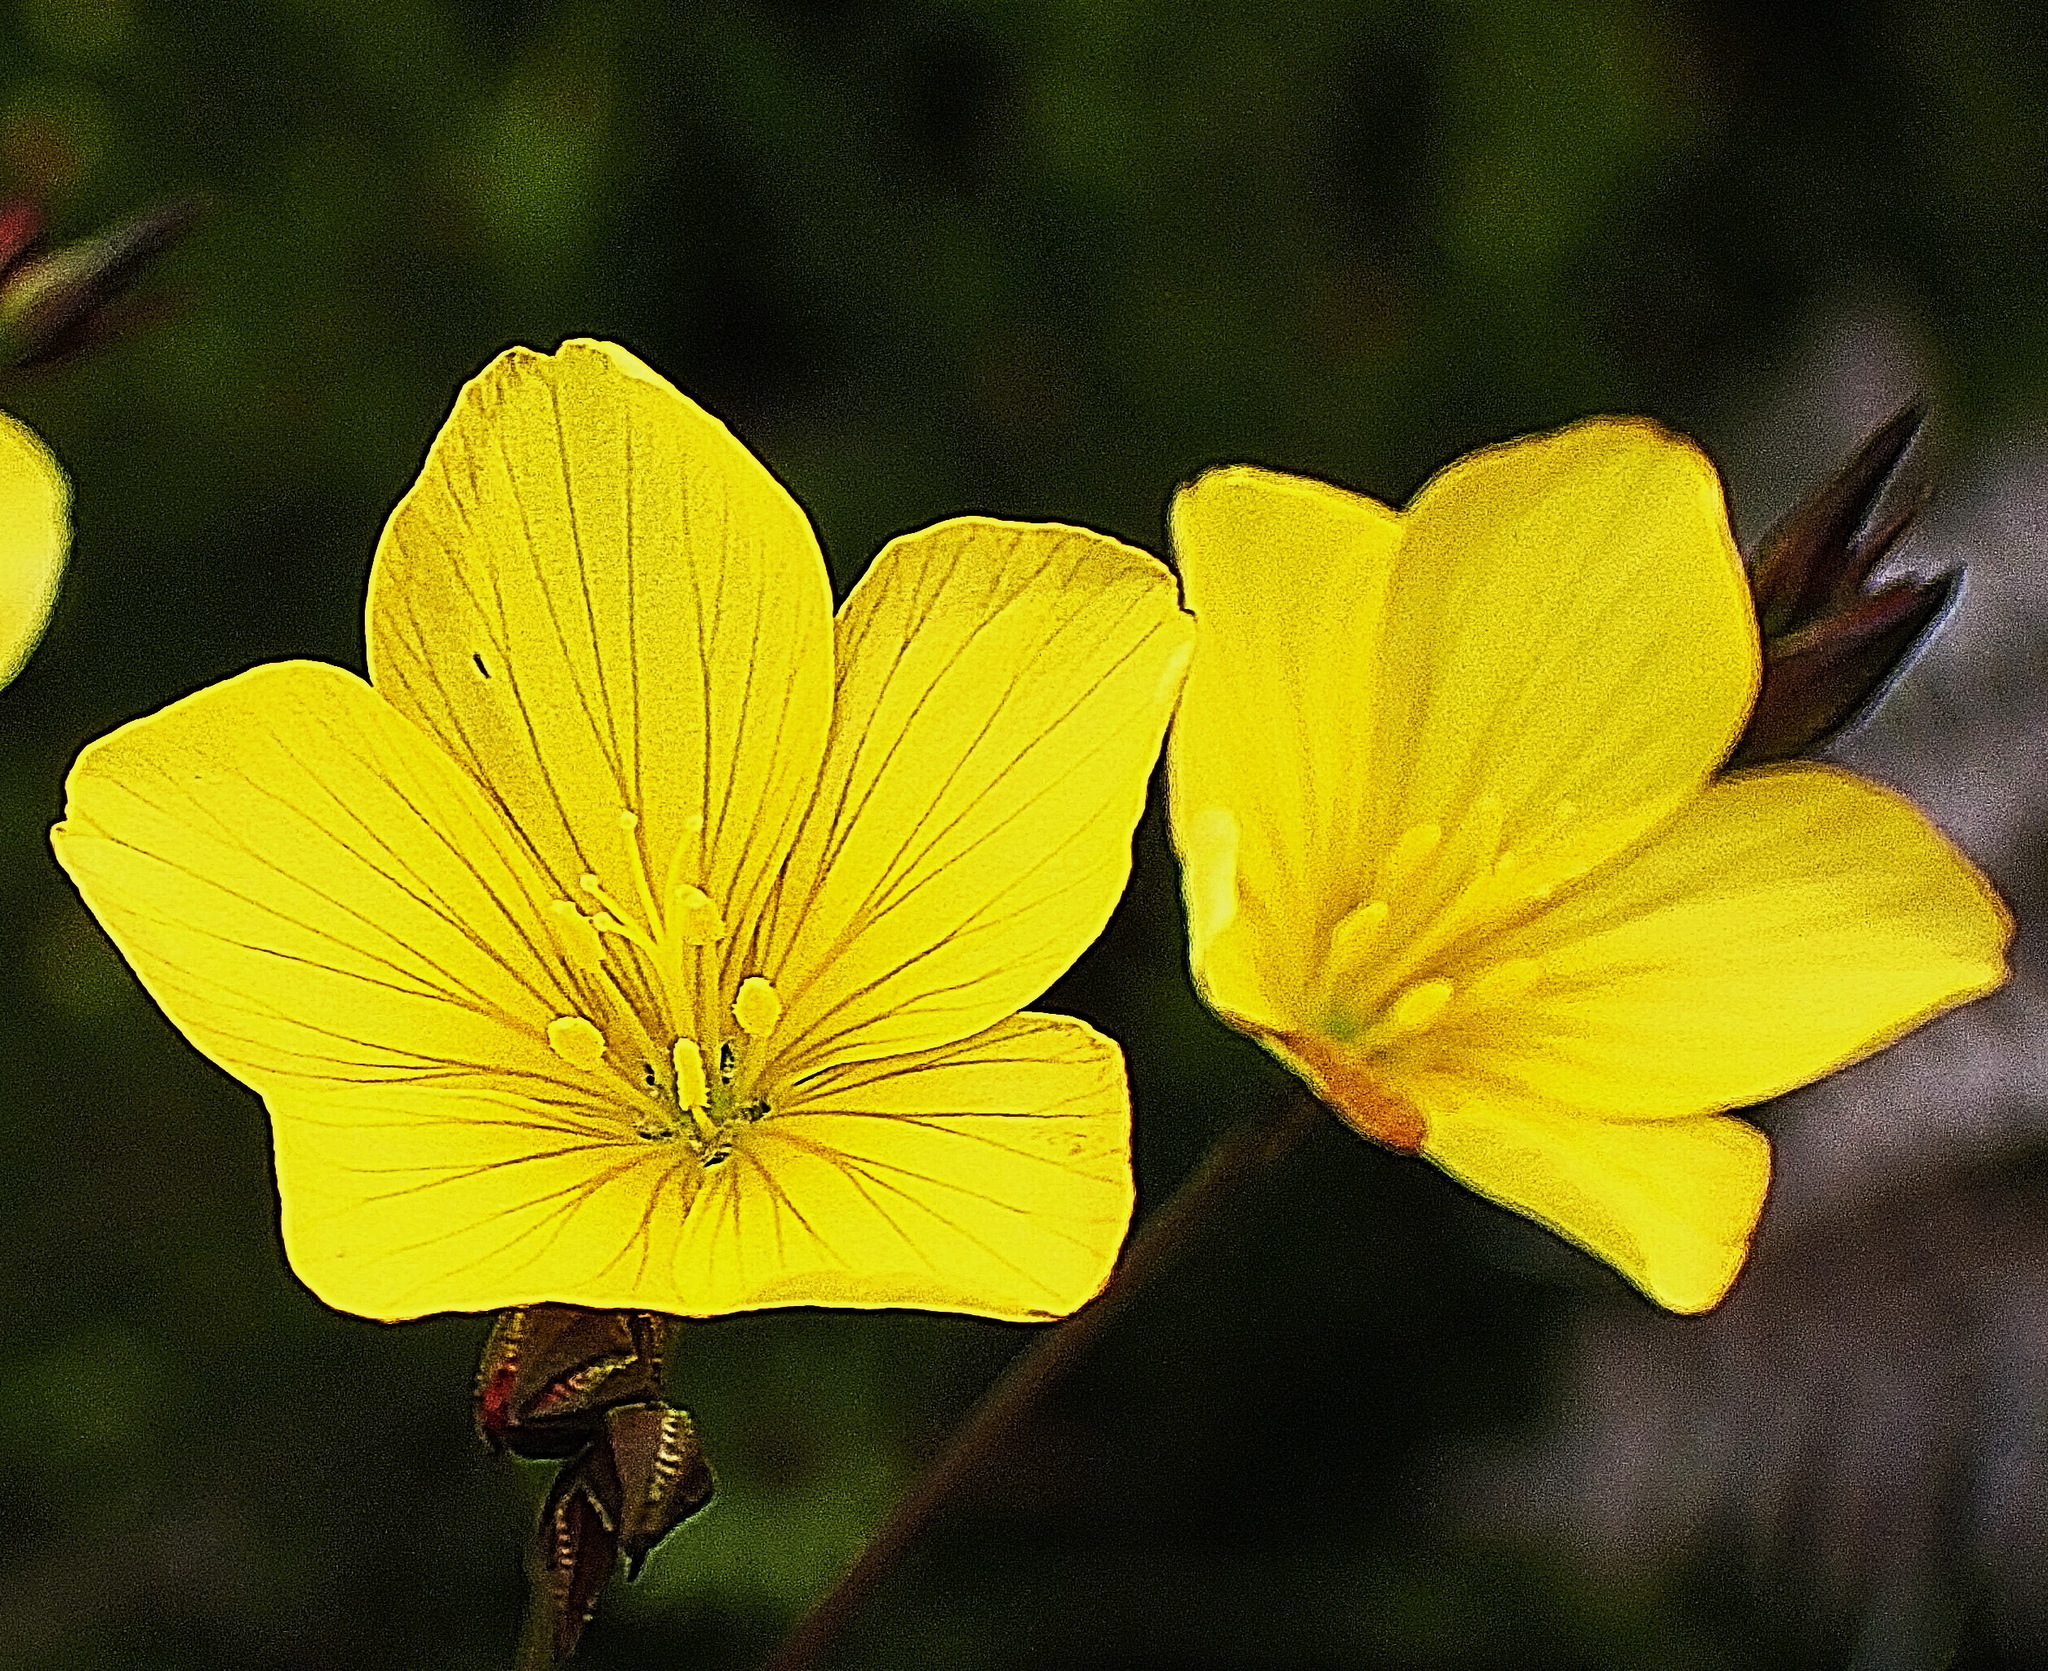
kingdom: Plantae
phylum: Tracheophyta
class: Magnoliopsida
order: Malpighiales
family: Linaceae
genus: Linum
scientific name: Linum africanum
